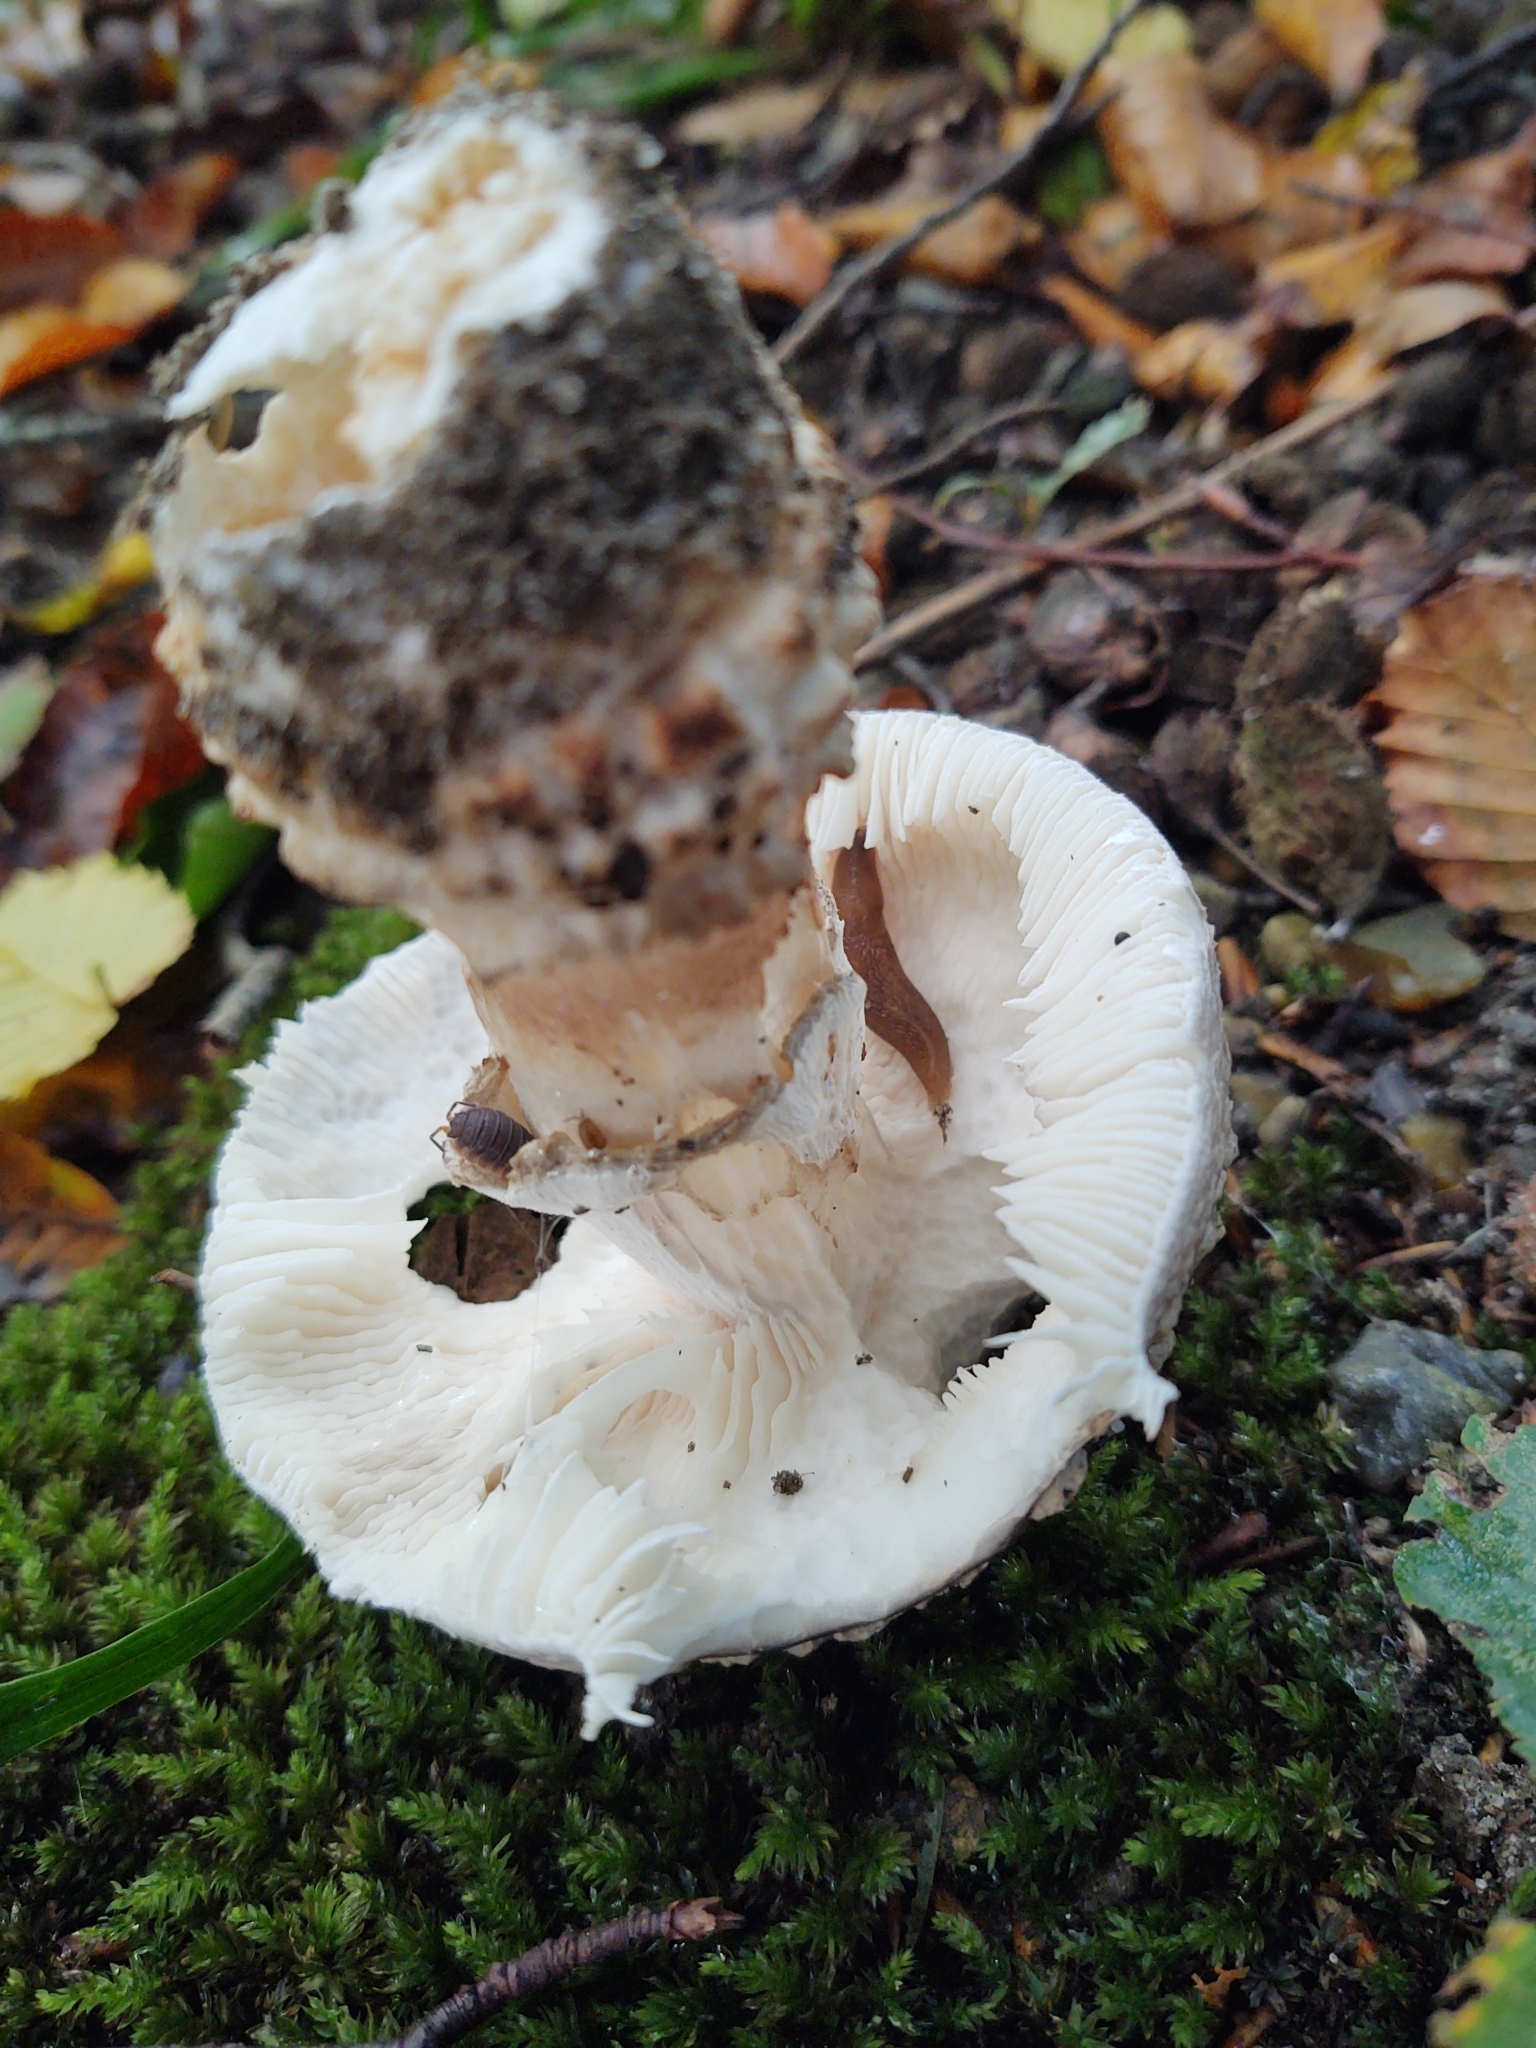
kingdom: Fungi
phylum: Basidiomycota
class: Agaricomycetes
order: Agaricales
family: Amanitaceae
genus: Amanita
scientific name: Amanita excelsa
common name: European false blusher
